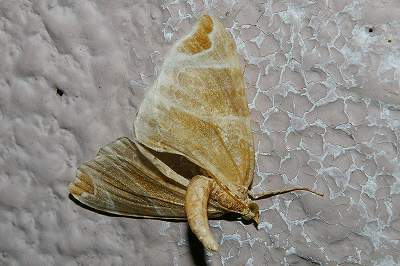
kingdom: Animalia
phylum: Arthropoda
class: Insecta
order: Lepidoptera
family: Geometridae
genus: Eulithis
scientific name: Eulithis ledereri
